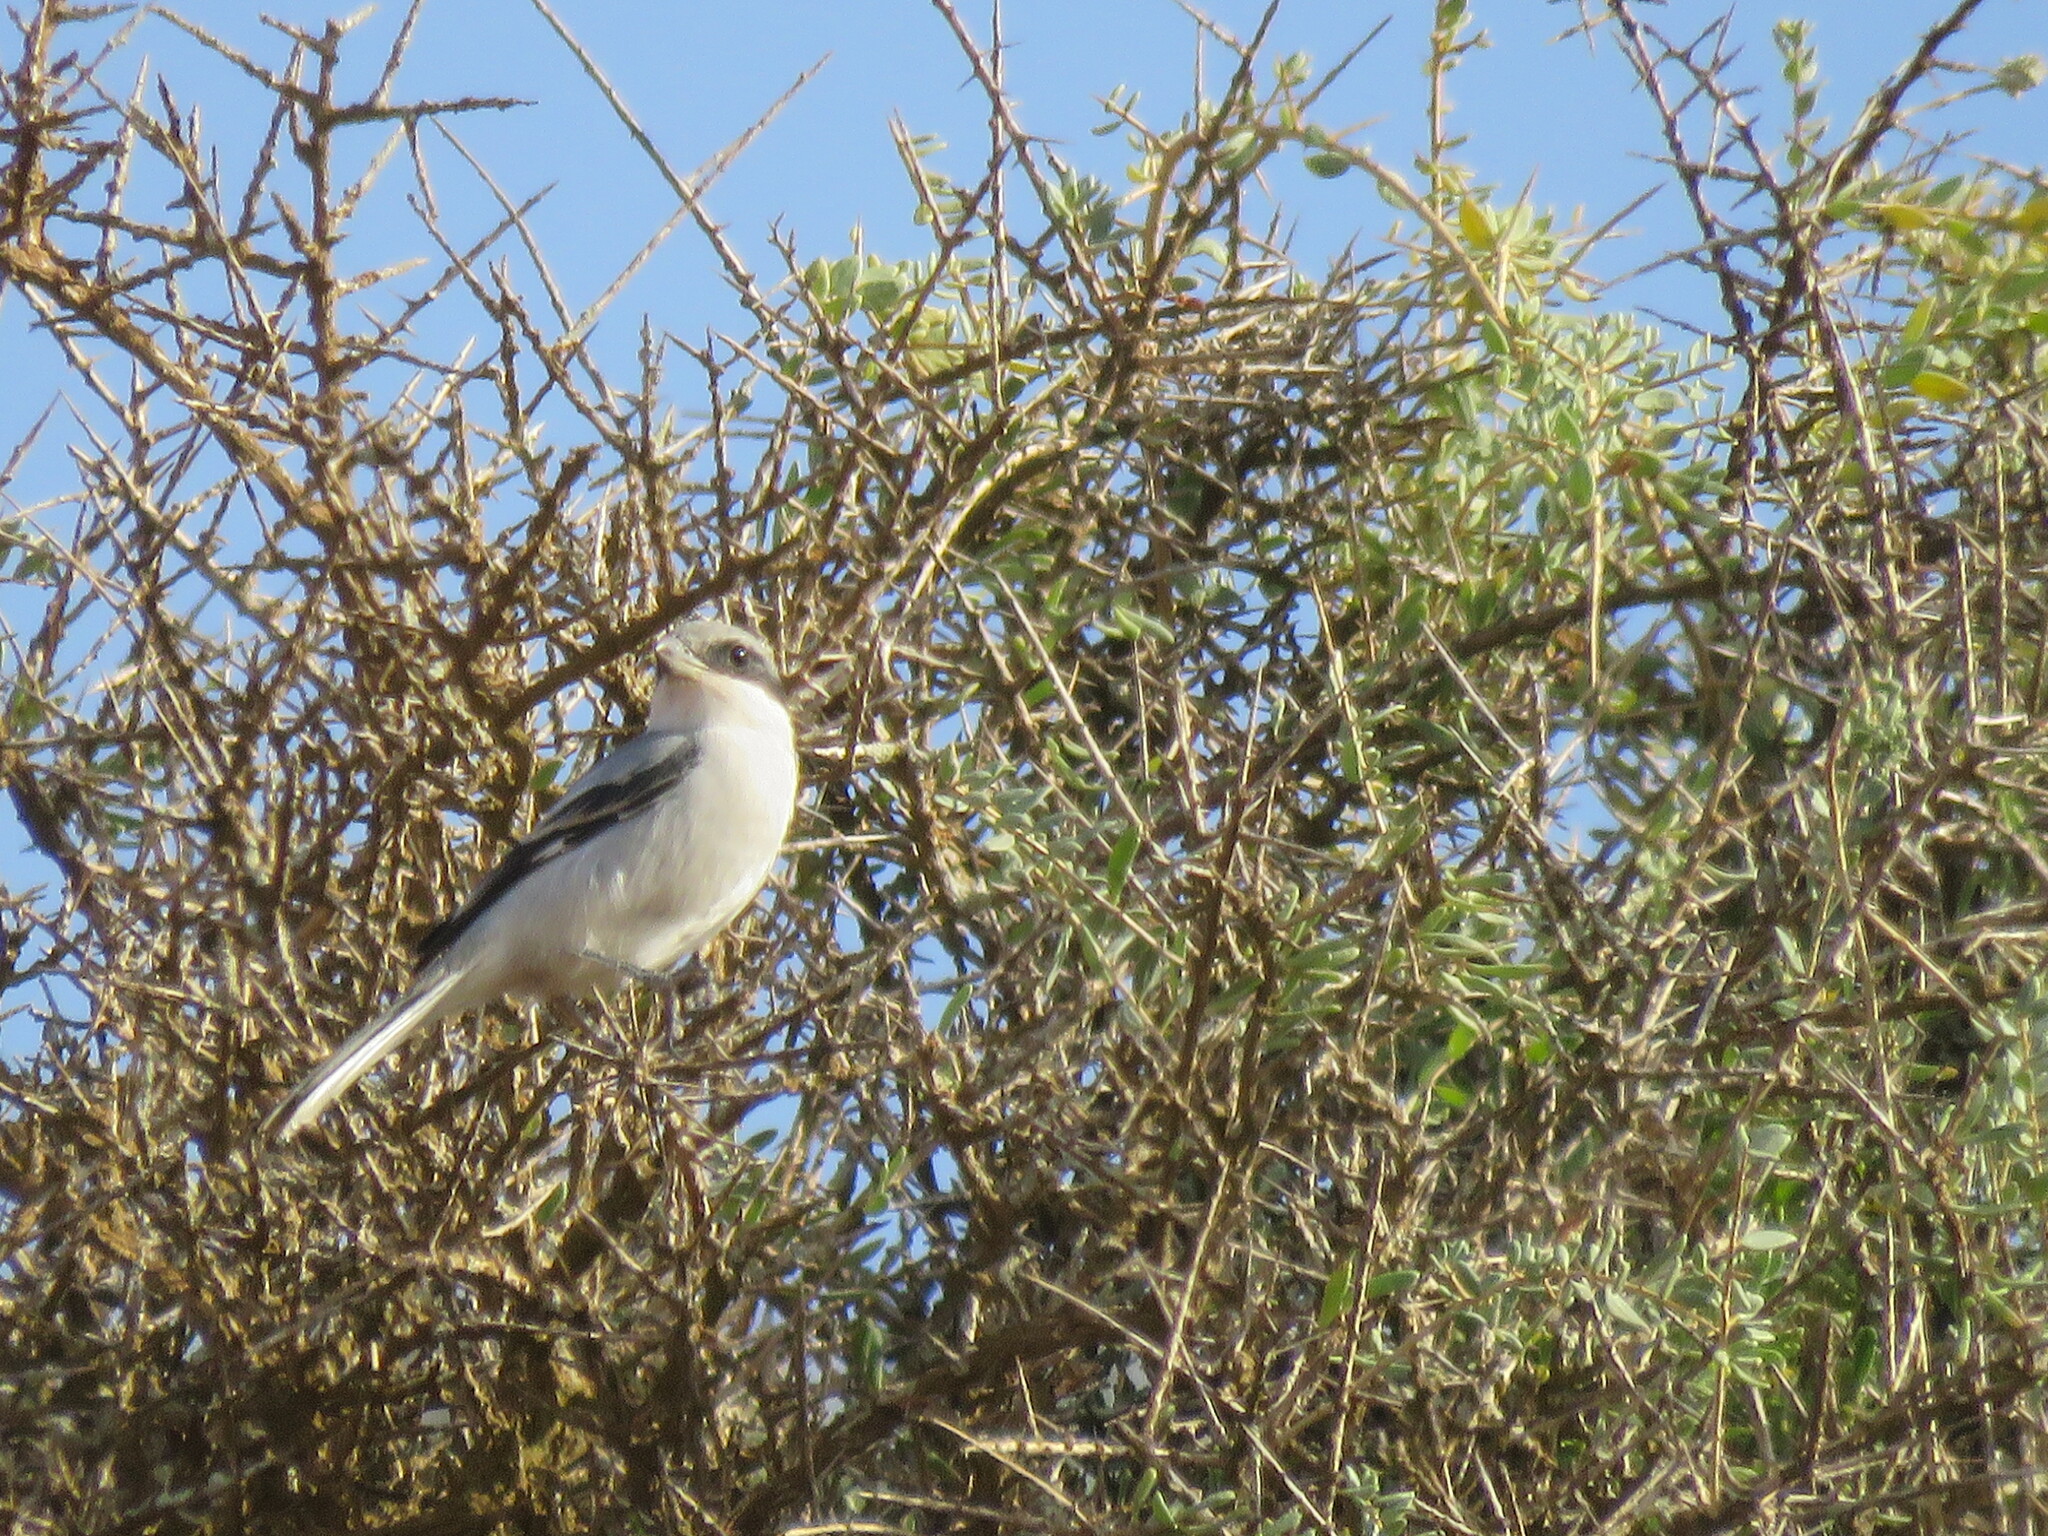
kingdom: Animalia
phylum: Chordata
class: Aves
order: Passeriformes
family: Laniidae
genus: Lanius
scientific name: Lanius excubitor
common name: Great grey shrike
